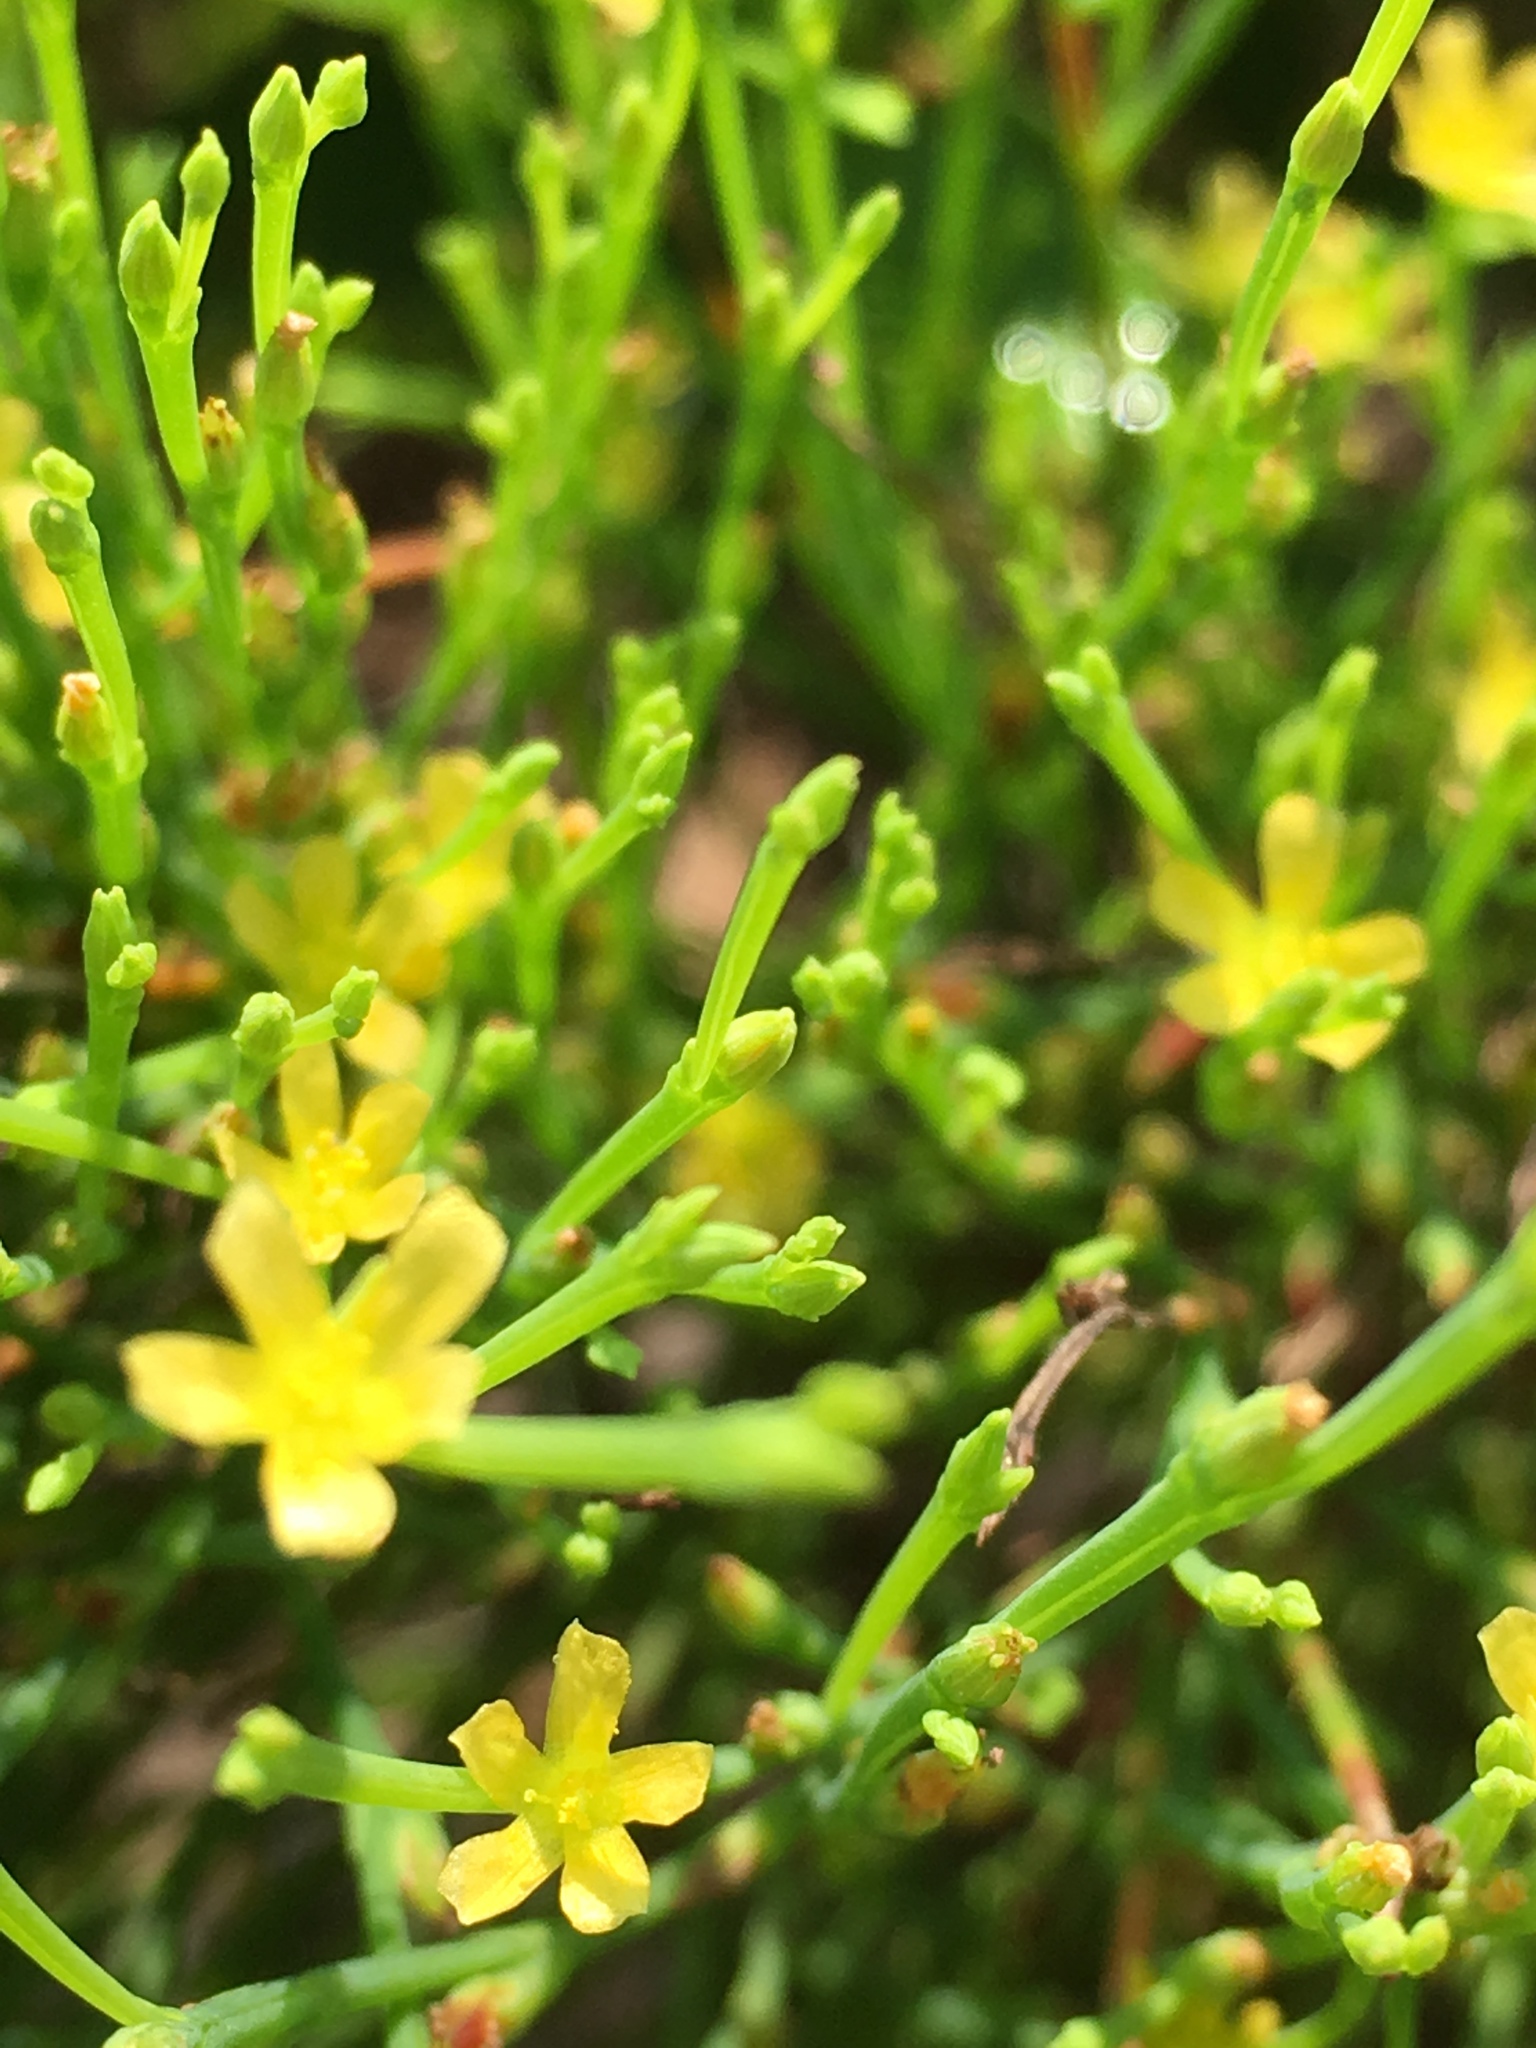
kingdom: Plantae
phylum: Tracheophyta
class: Magnoliopsida
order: Malpighiales
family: Hypericaceae
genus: Hypericum
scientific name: Hypericum gentianoides
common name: Gentian-leaved st. john's-wort
